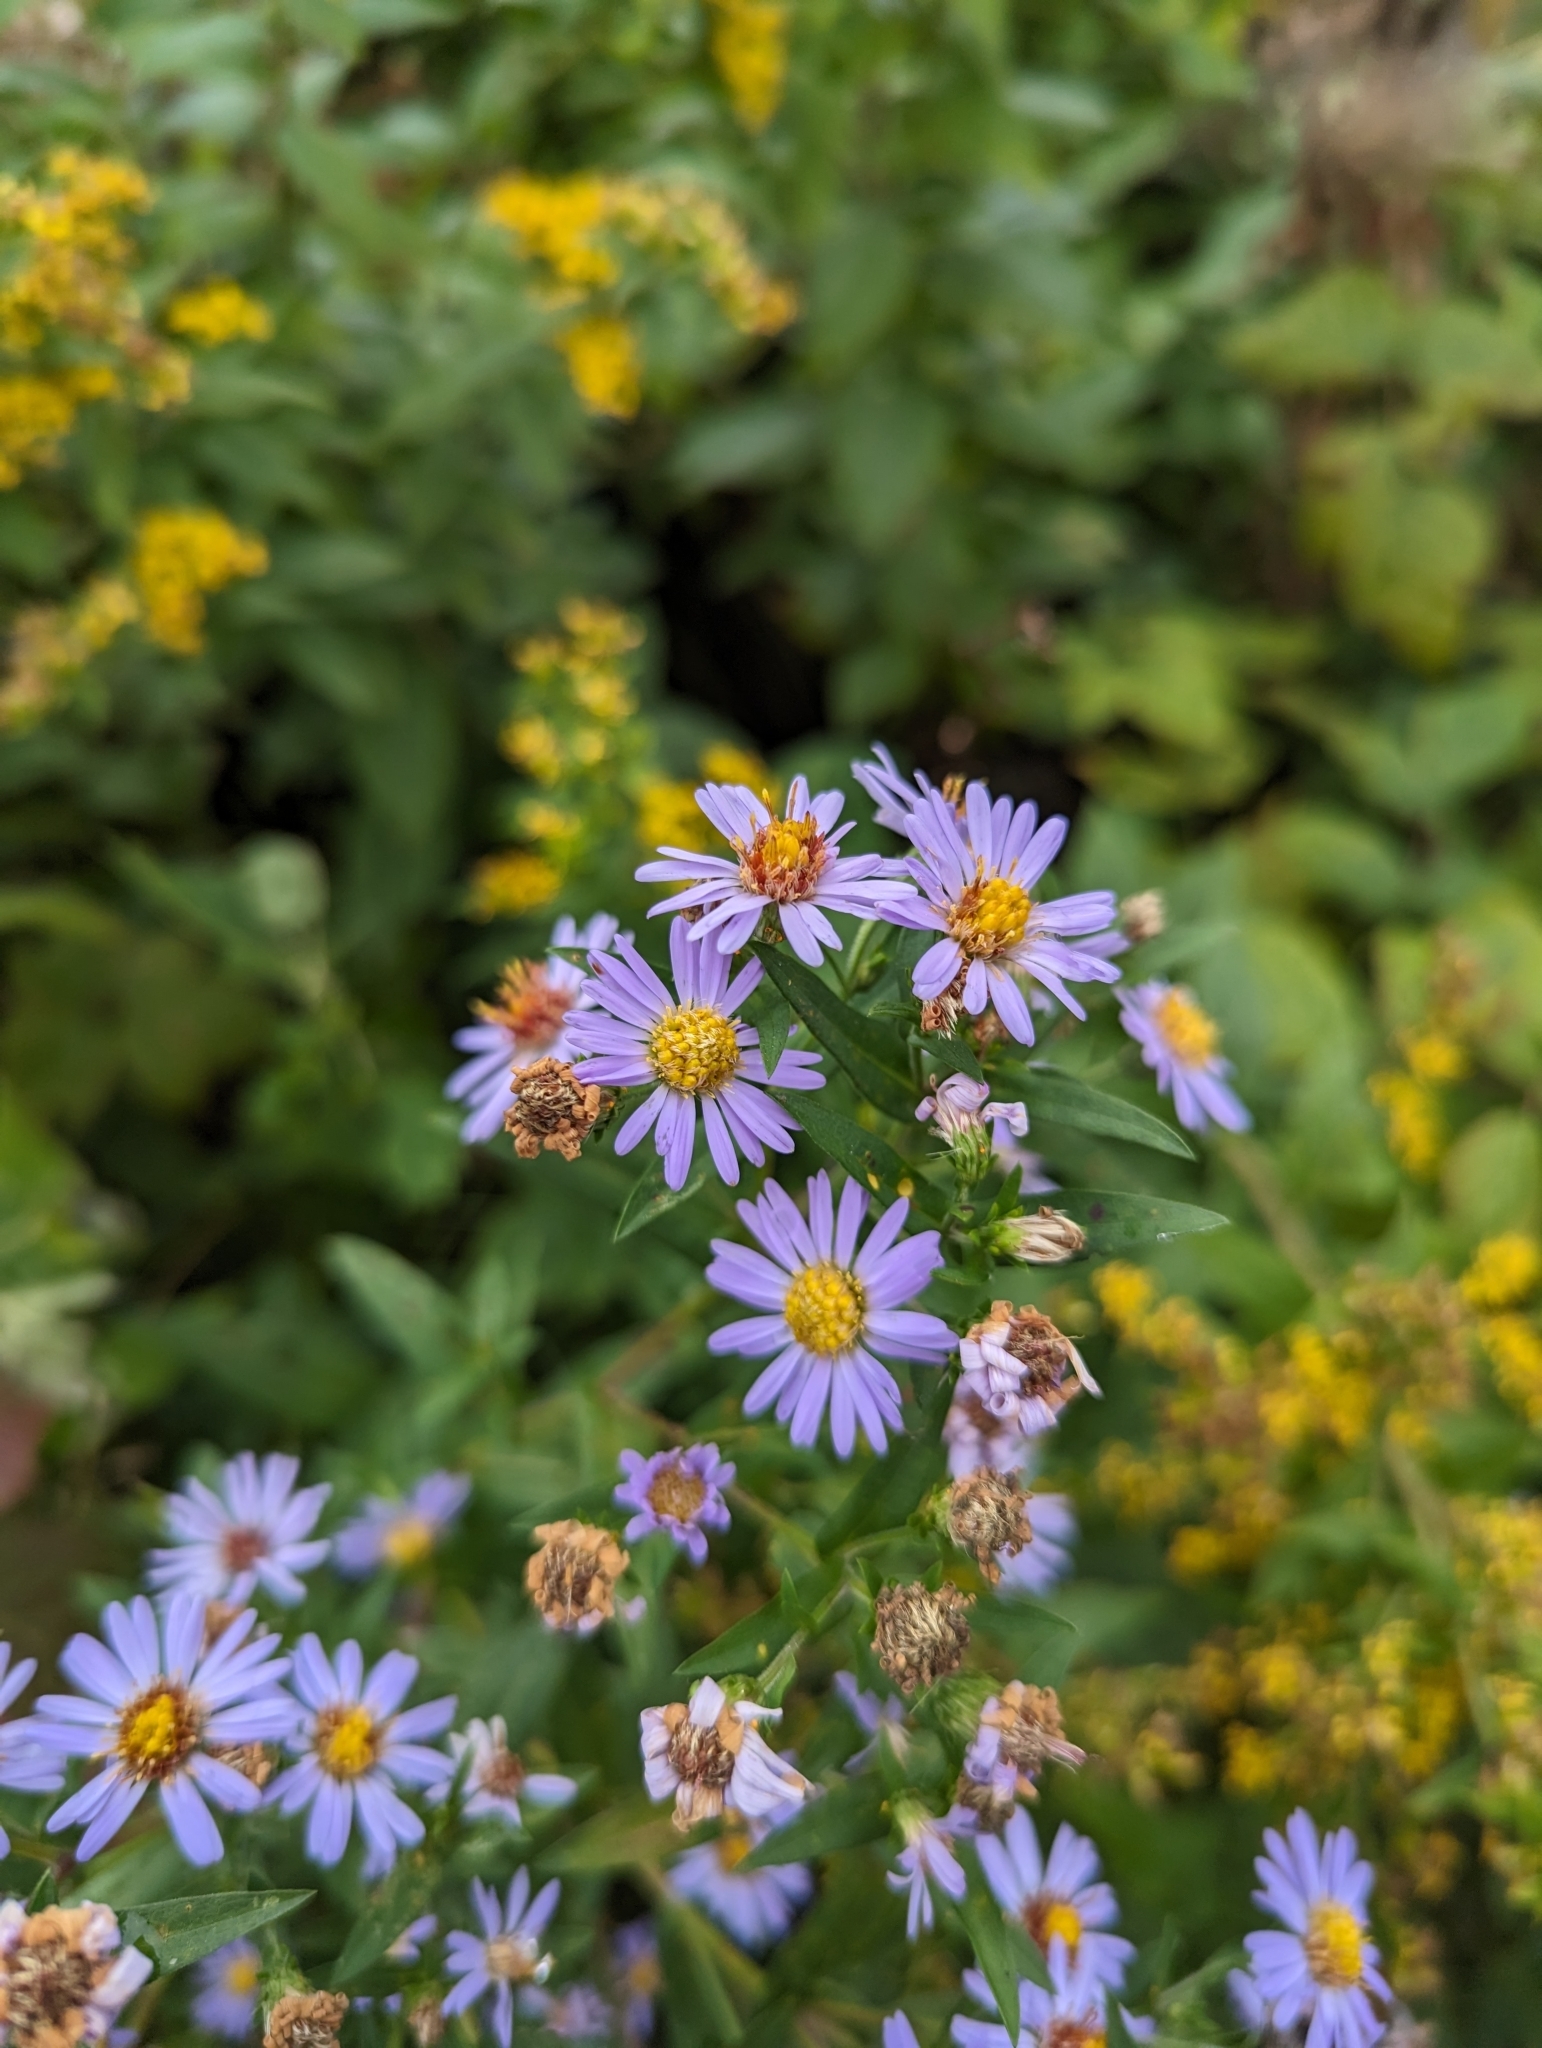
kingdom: Plantae
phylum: Tracheophyta
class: Magnoliopsida
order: Asterales
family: Asteraceae
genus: Symphyotrichum
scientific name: Symphyotrichum novi-belgii
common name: Michaelmas daisy
